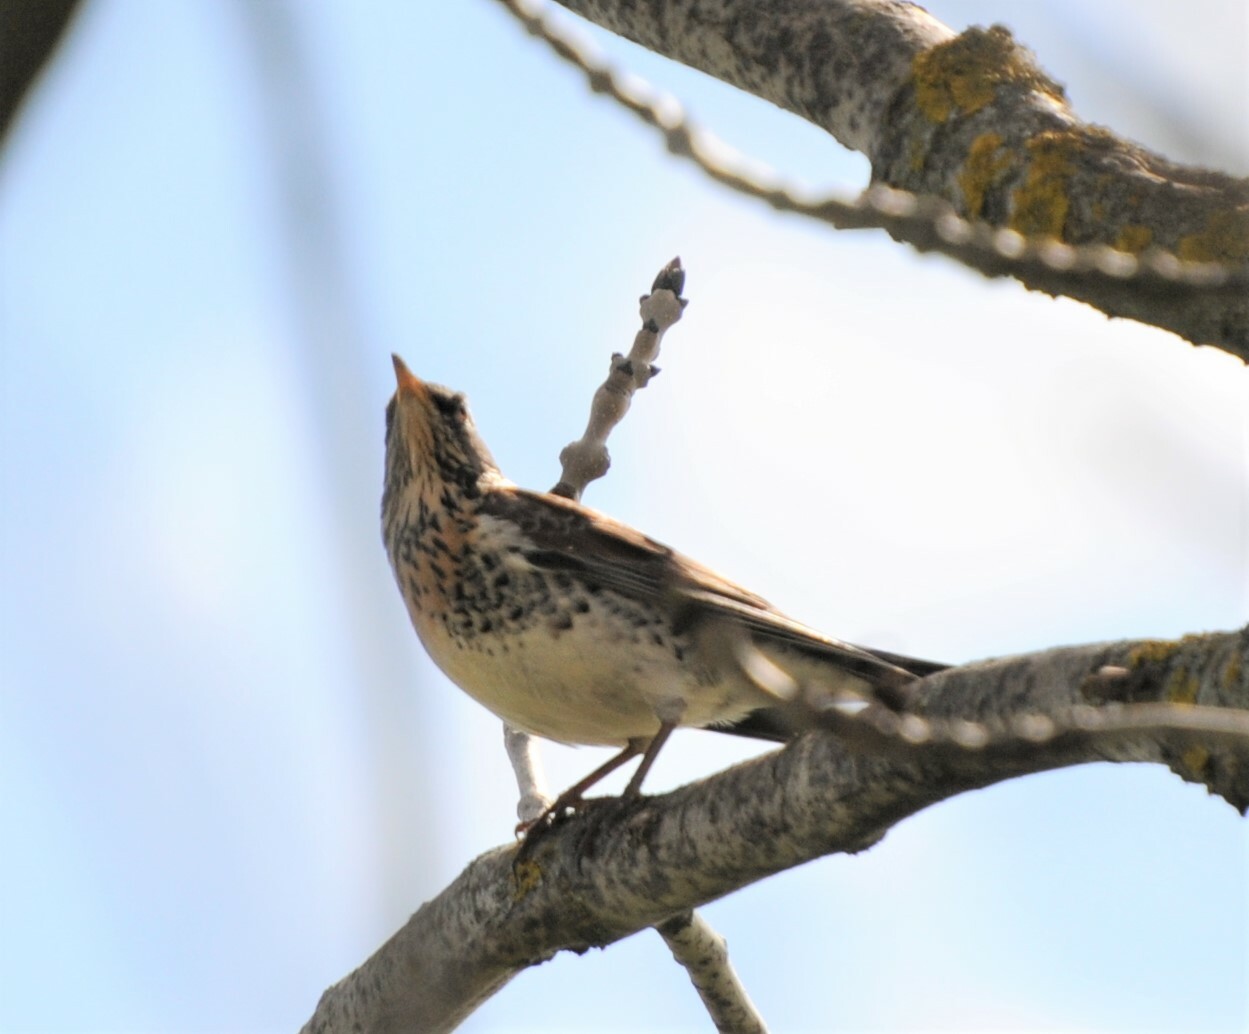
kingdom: Animalia
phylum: Chordata
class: Aves
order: Passeriformes
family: Turdidae
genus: Turdus
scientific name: Turdus pilaris
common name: Fieldfare
